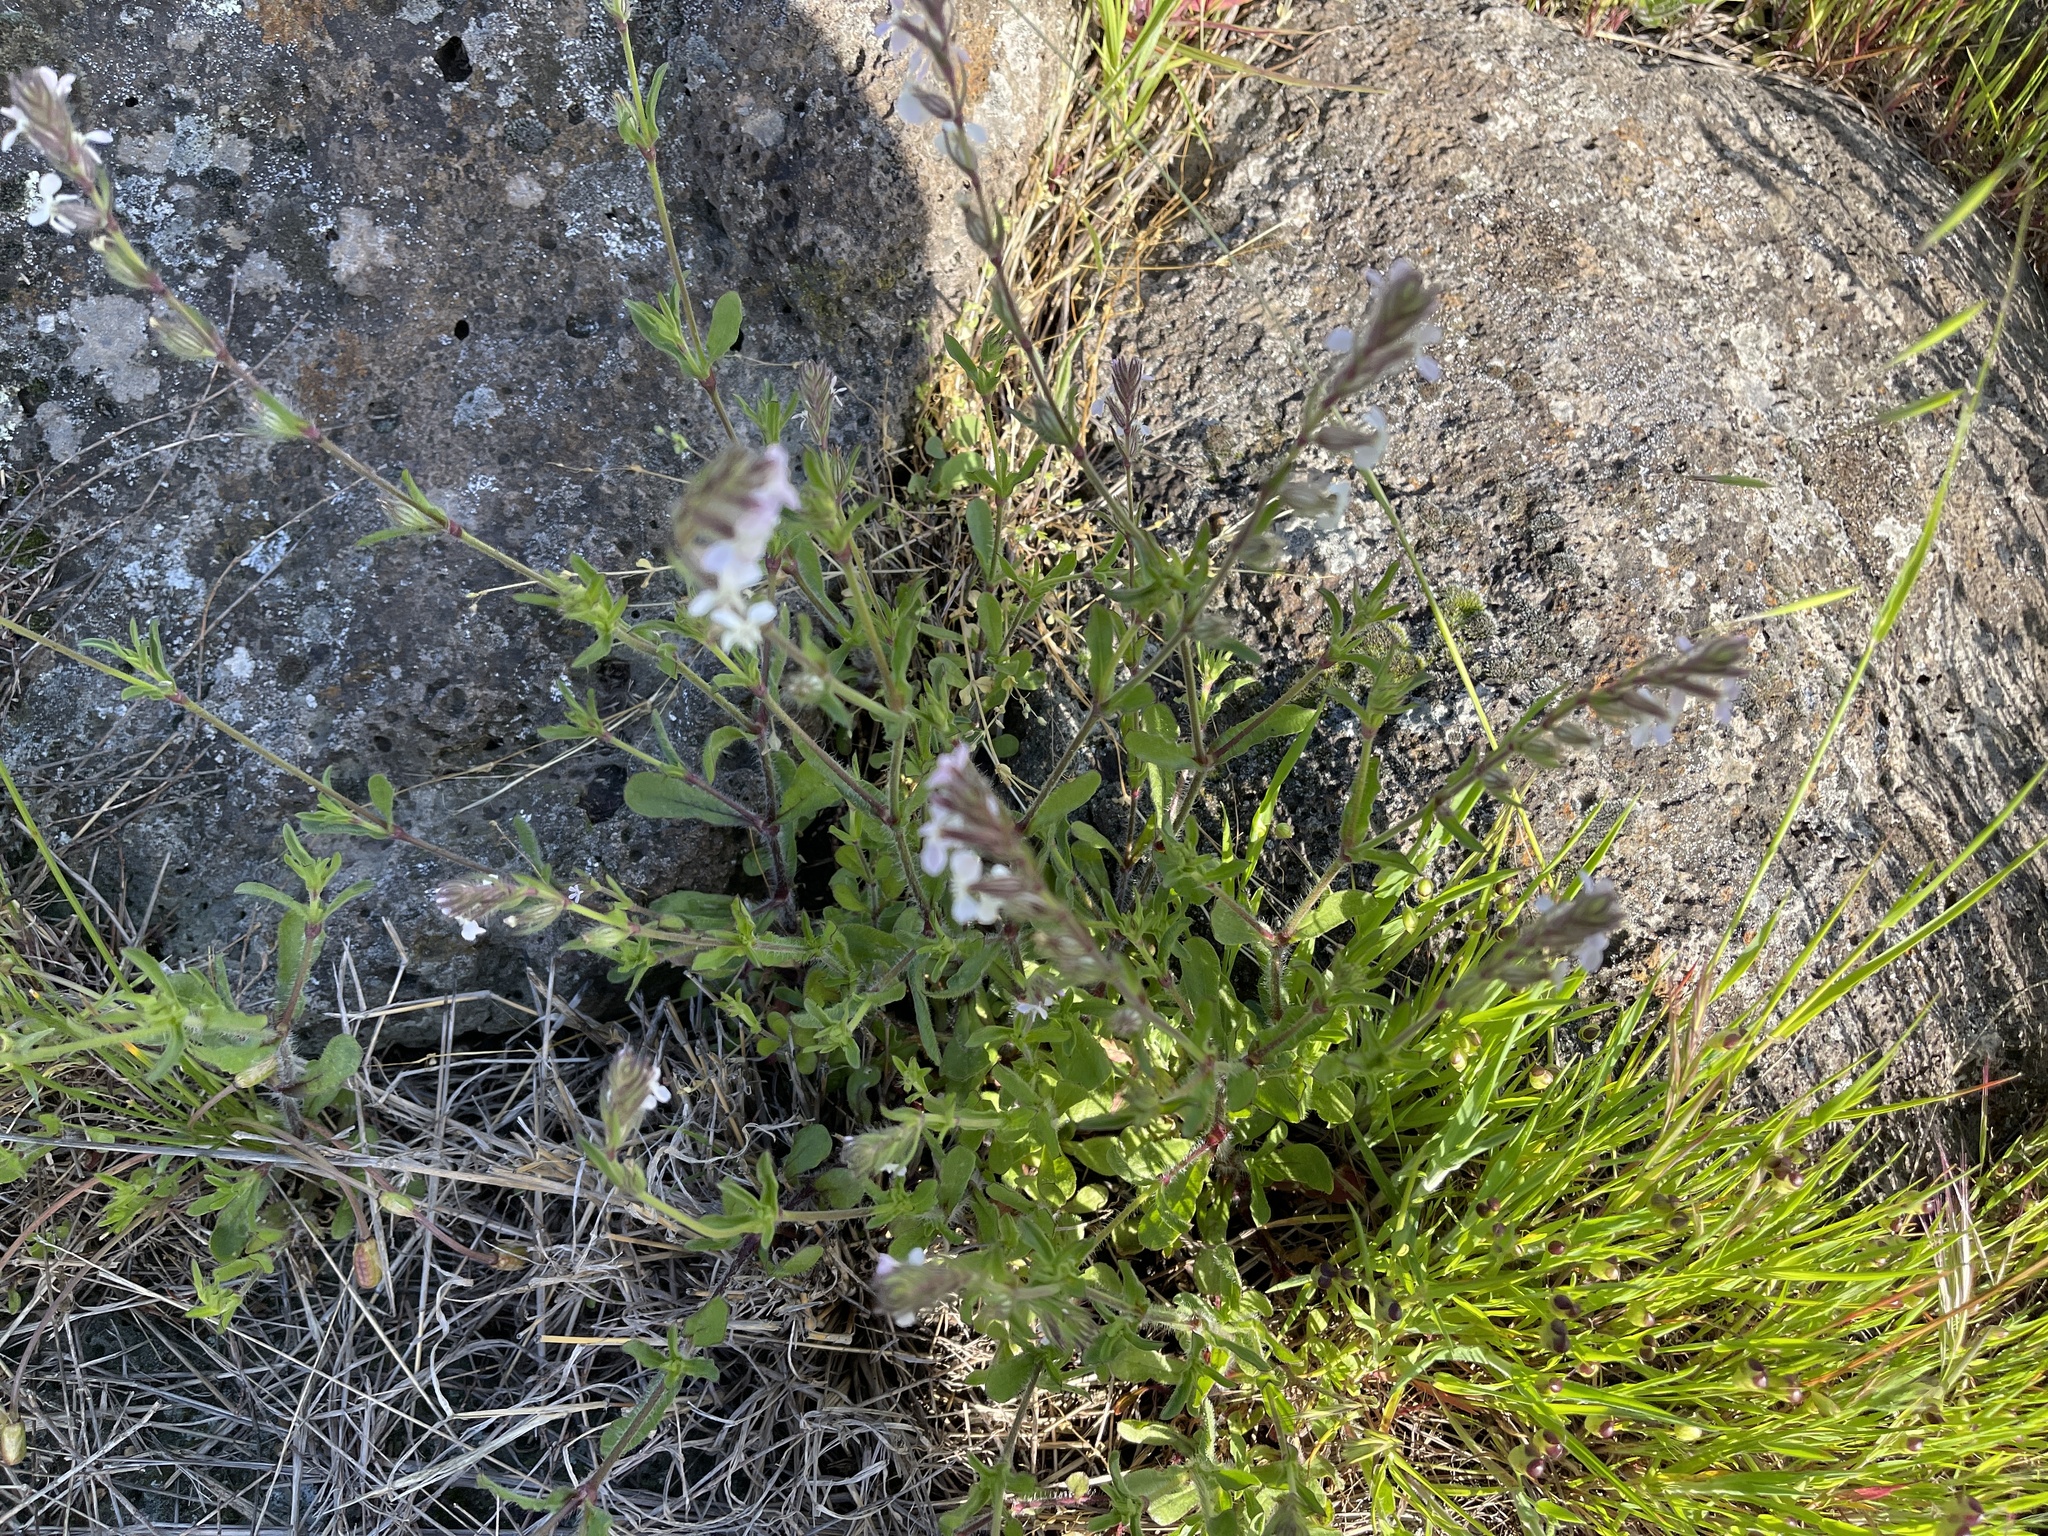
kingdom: Plantae
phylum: Tracheophyta
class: Magnoliopsida
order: Caryophyllales
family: Caryophyllaceae
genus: Silene
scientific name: Silene gallica
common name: Small-flowered catchfly
